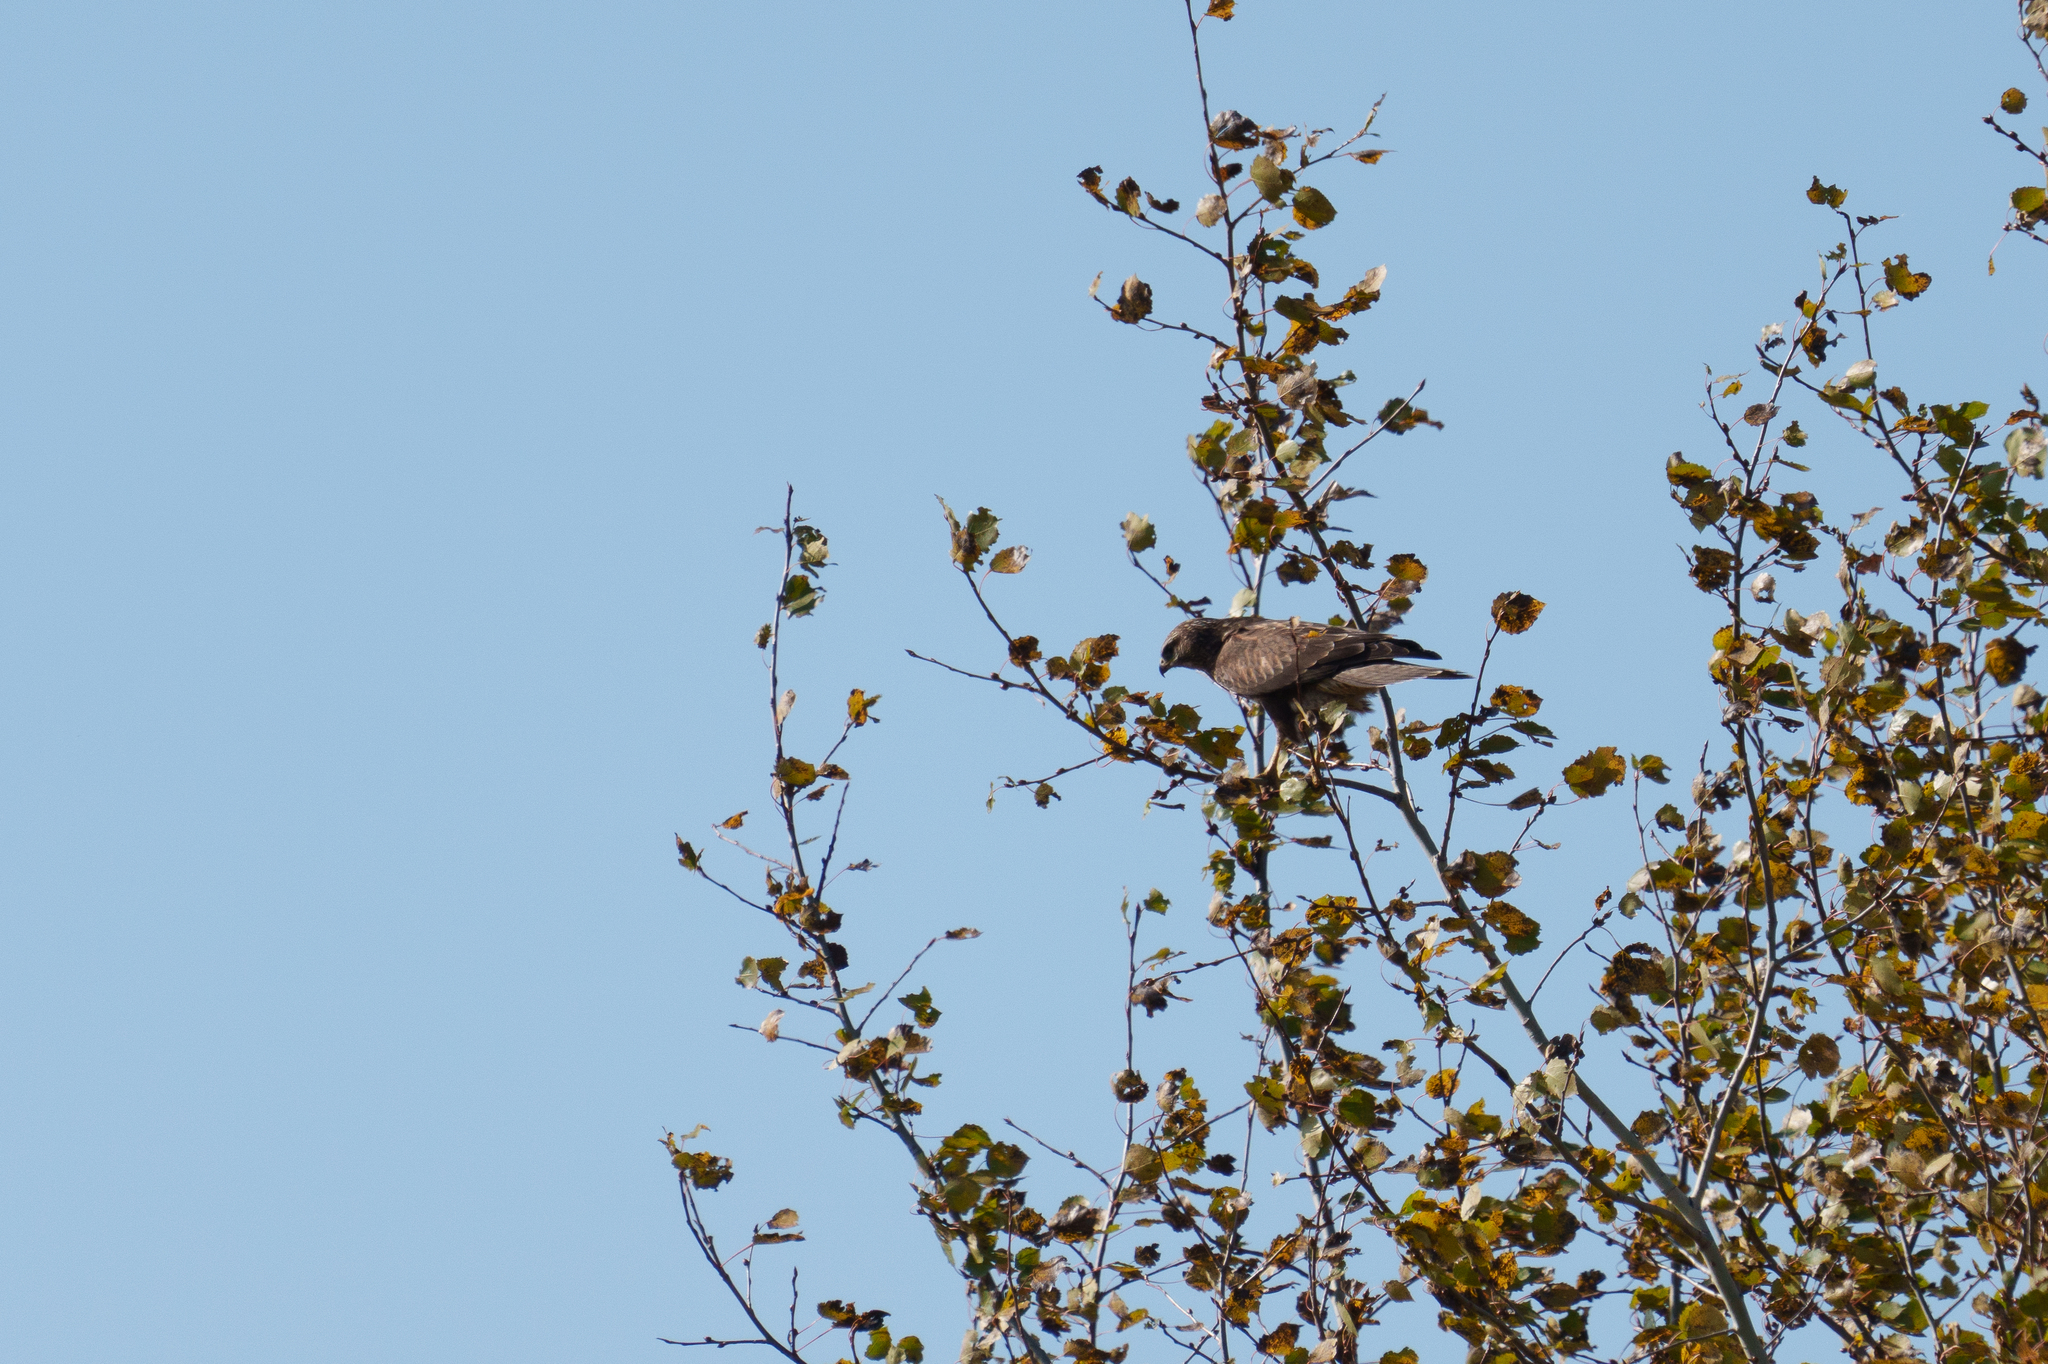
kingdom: Animalia
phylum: Chordata
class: Aves
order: Accipitriformes
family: Accipitridae
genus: Buteo
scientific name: Buteo buteo
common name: Common buzzard
